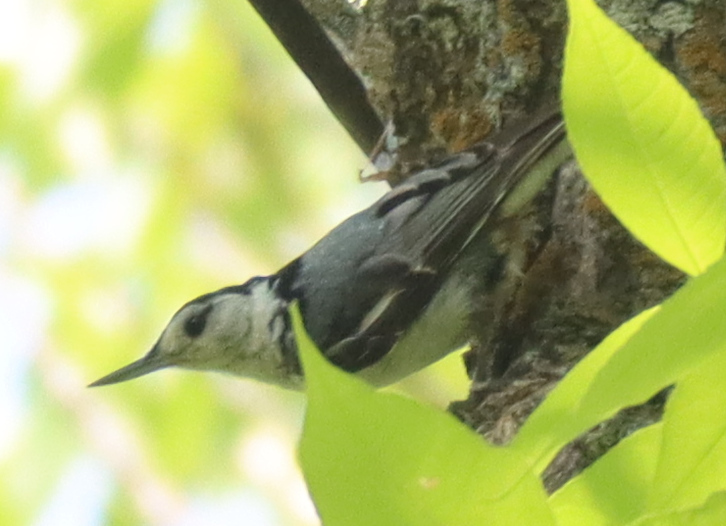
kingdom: Animalia
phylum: Chordata
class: Aves
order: Passeriformes
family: Sittidae
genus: Sitta
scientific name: Sitta carolinensis
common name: White-breasted nuthatch
